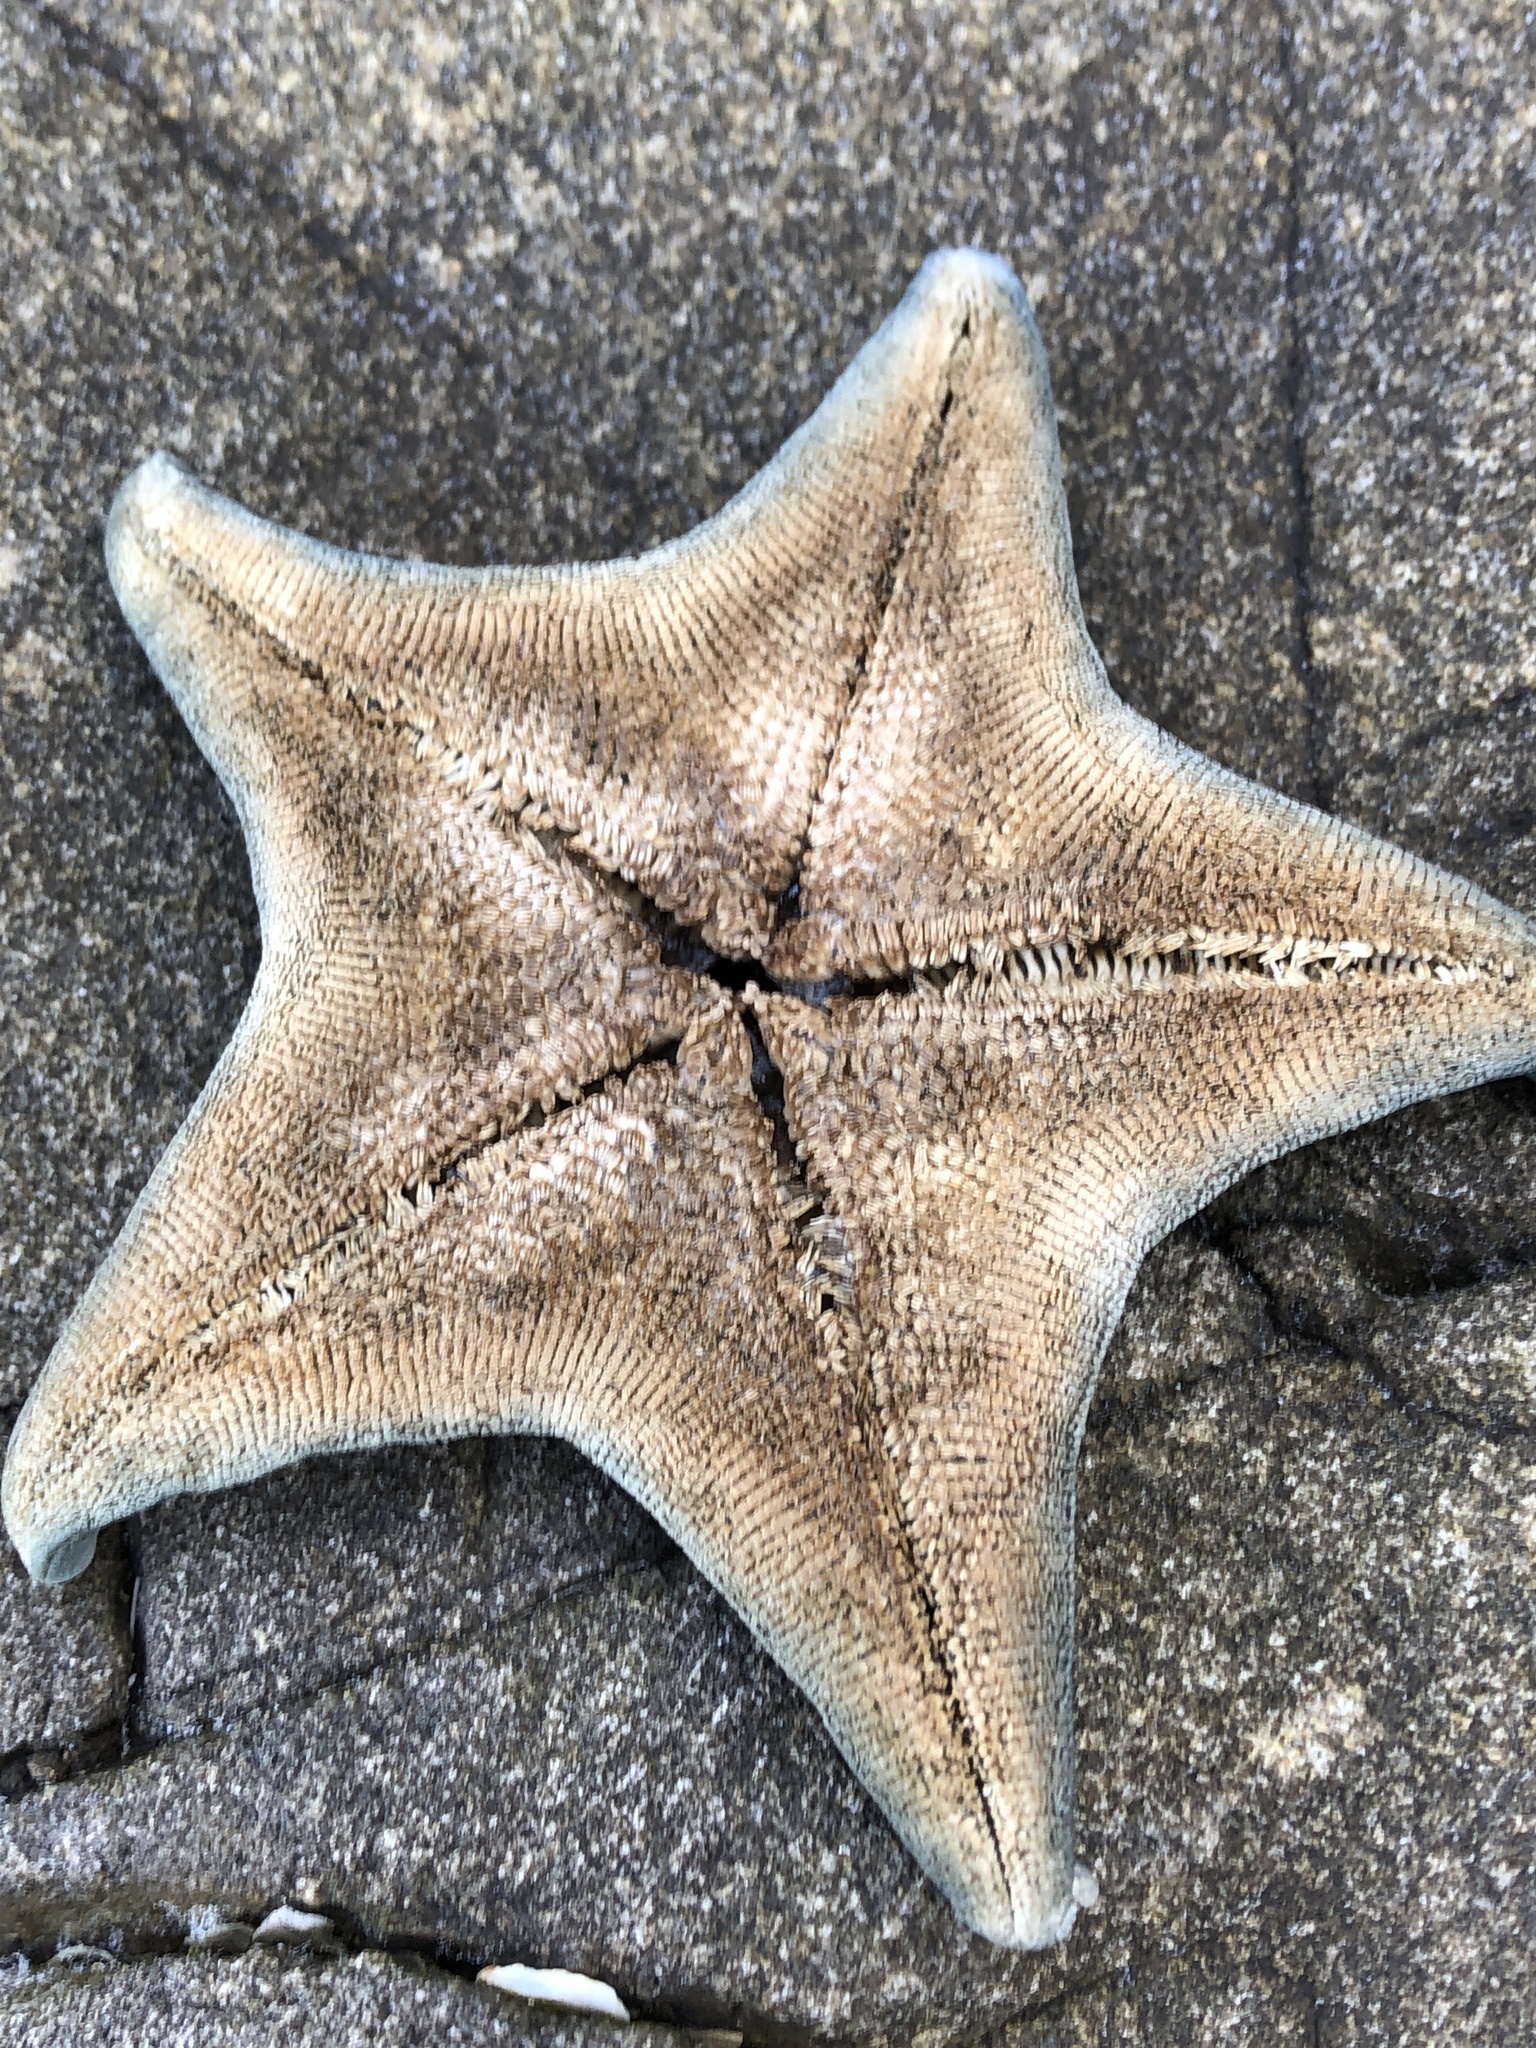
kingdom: Animalia
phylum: Echinodermata
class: Asteroidea
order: Valvatida
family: Asterinidae
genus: Patiria
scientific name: Patiria pectinifera
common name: Blue bat star
